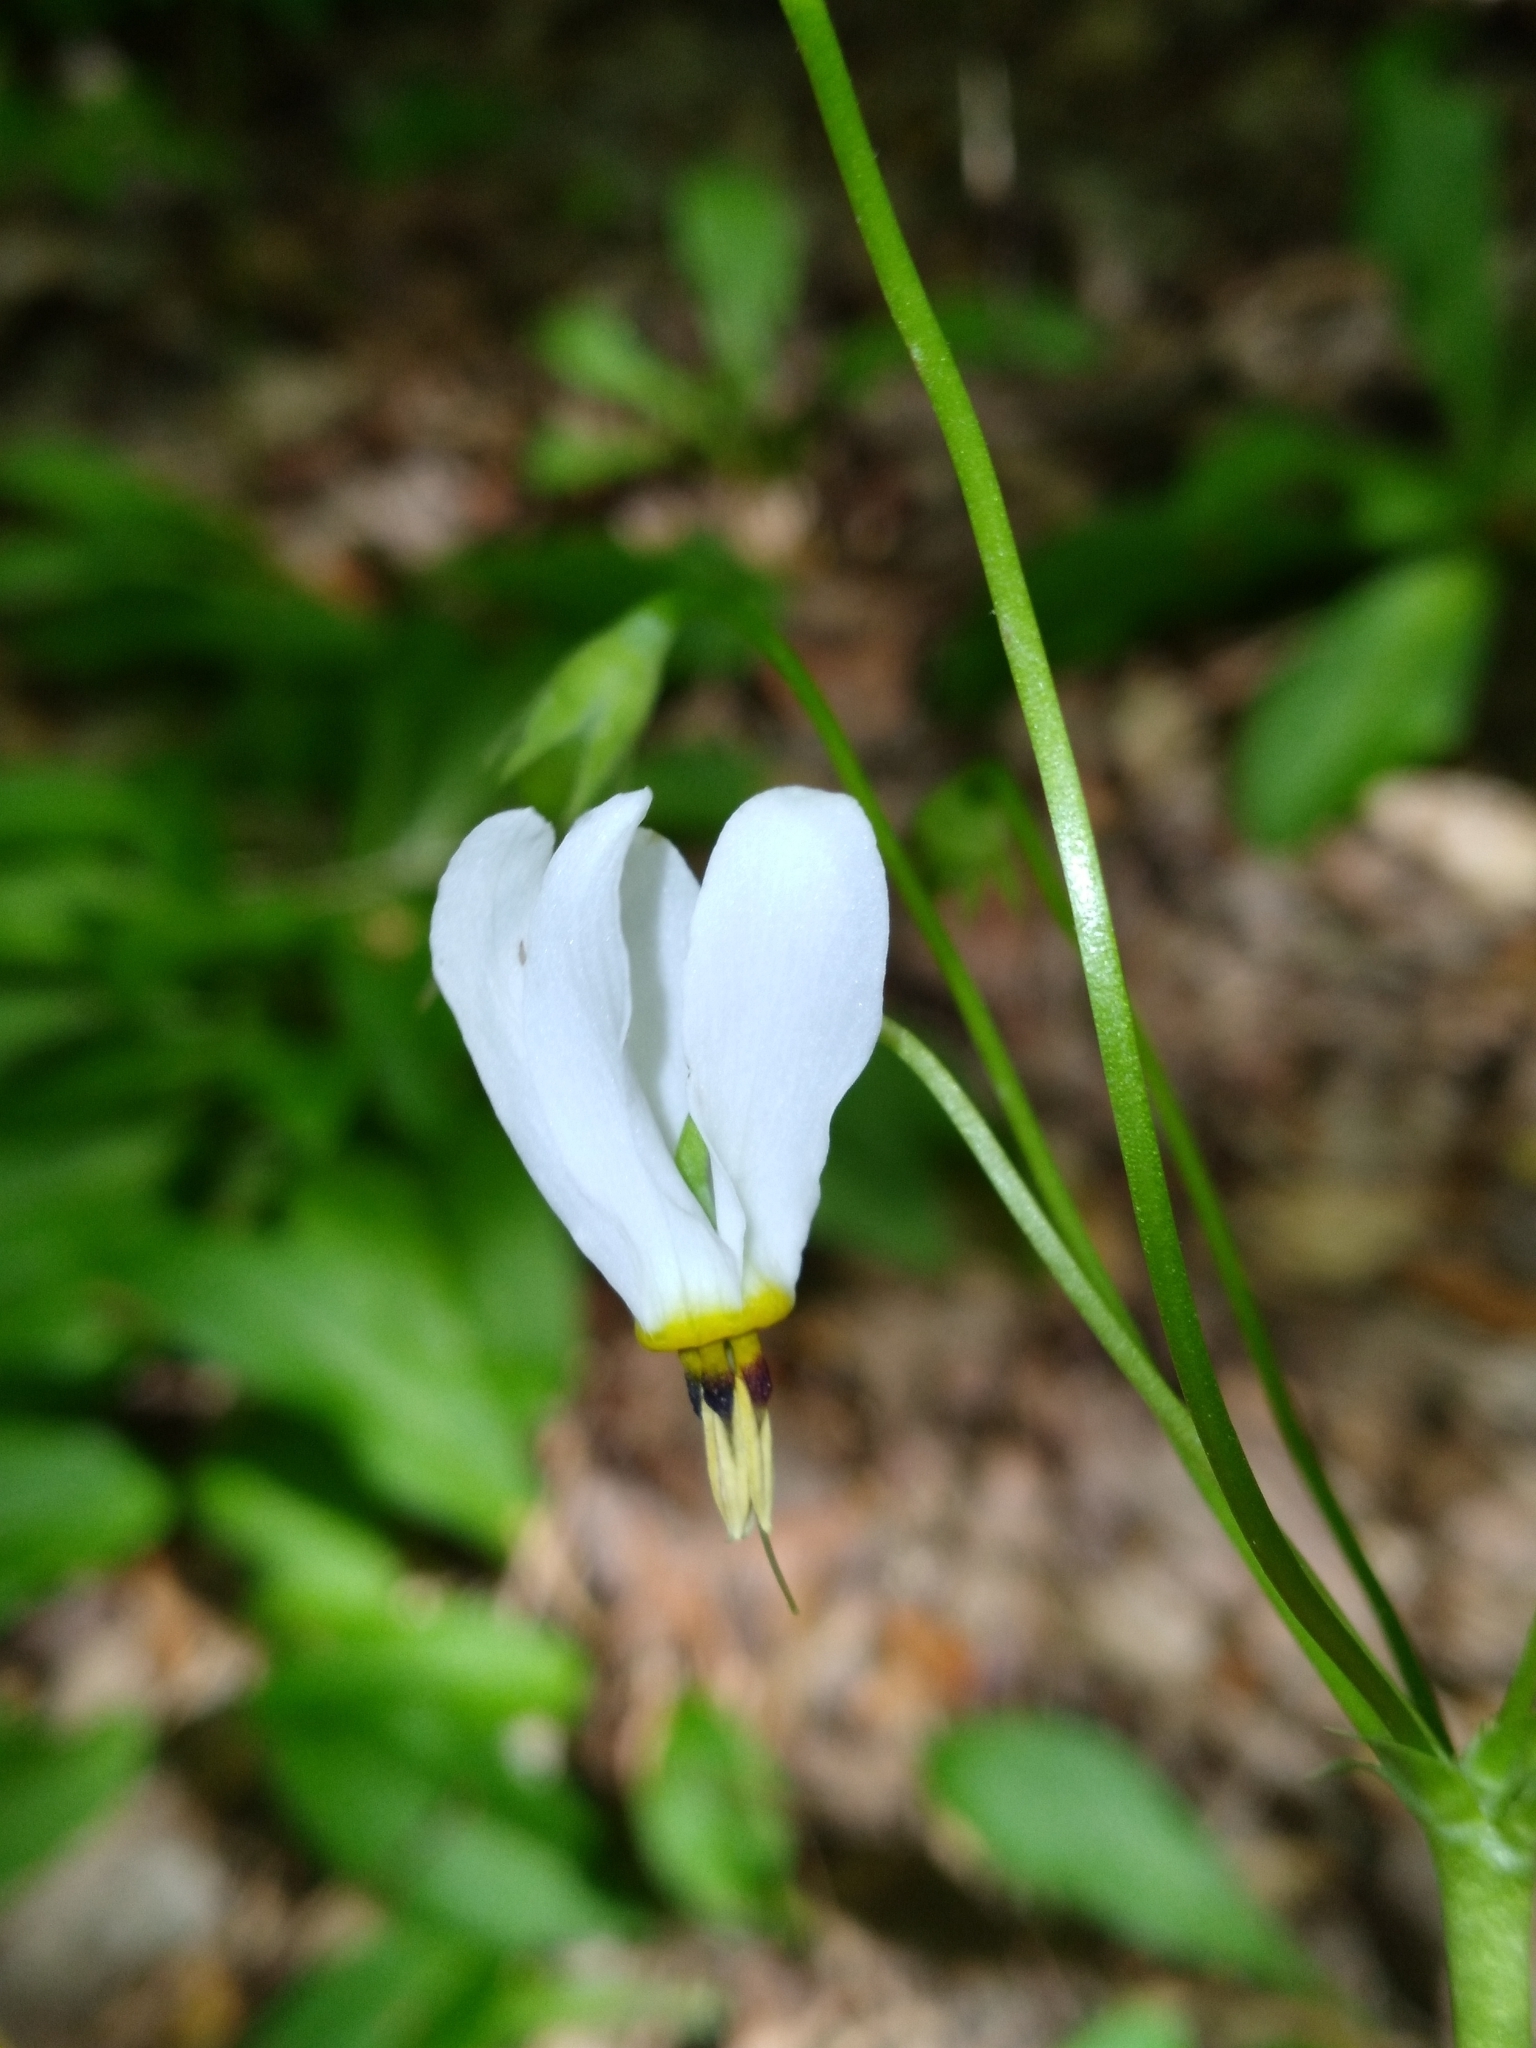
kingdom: Plantae
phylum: Tracheophyta
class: Magnoliopsida
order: Ericales
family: Primulaceae
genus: Dodecatheon
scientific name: Dodecatheon meadia
